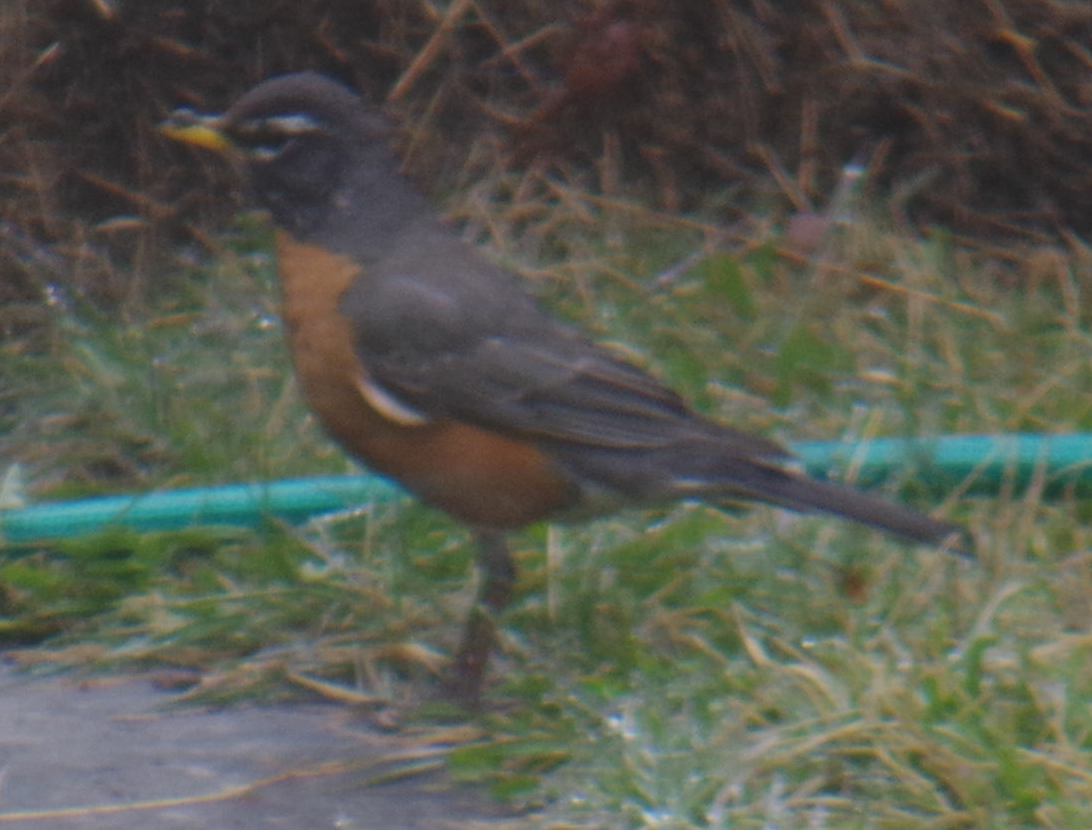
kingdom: Animalia
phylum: Chordata
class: Aves
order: Passeriformes
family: Turdidae
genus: Turdus
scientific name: Turdus migratorius
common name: American robin
